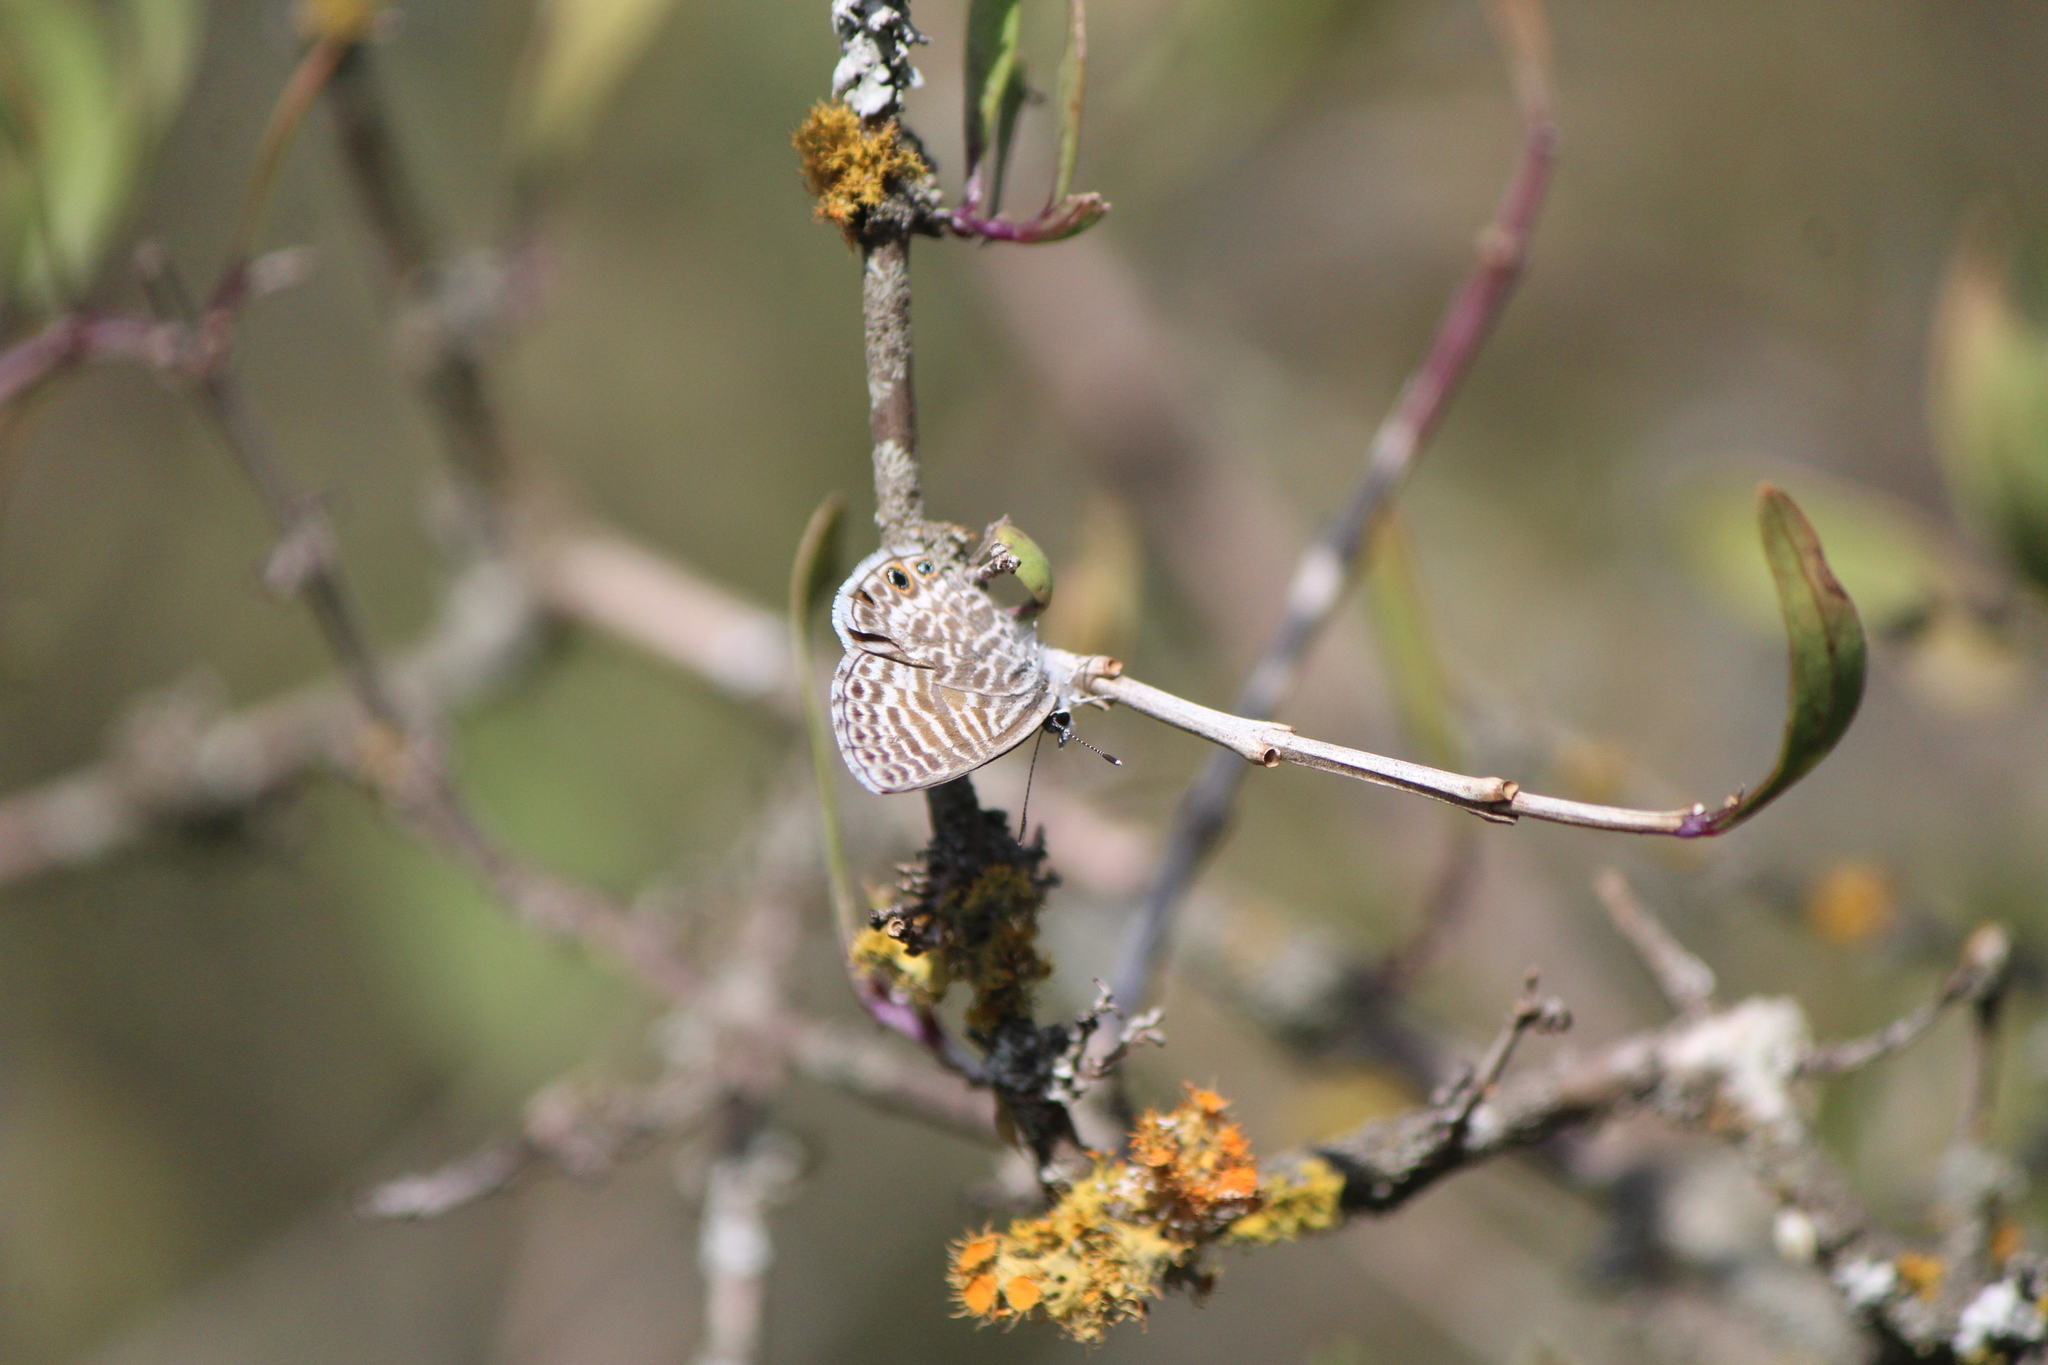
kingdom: Animalia
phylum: Arthropoda
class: Insecta
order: Lepidoptera
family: Lycaenidae
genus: Leptotes
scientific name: Leptotes marina
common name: Marine blue
